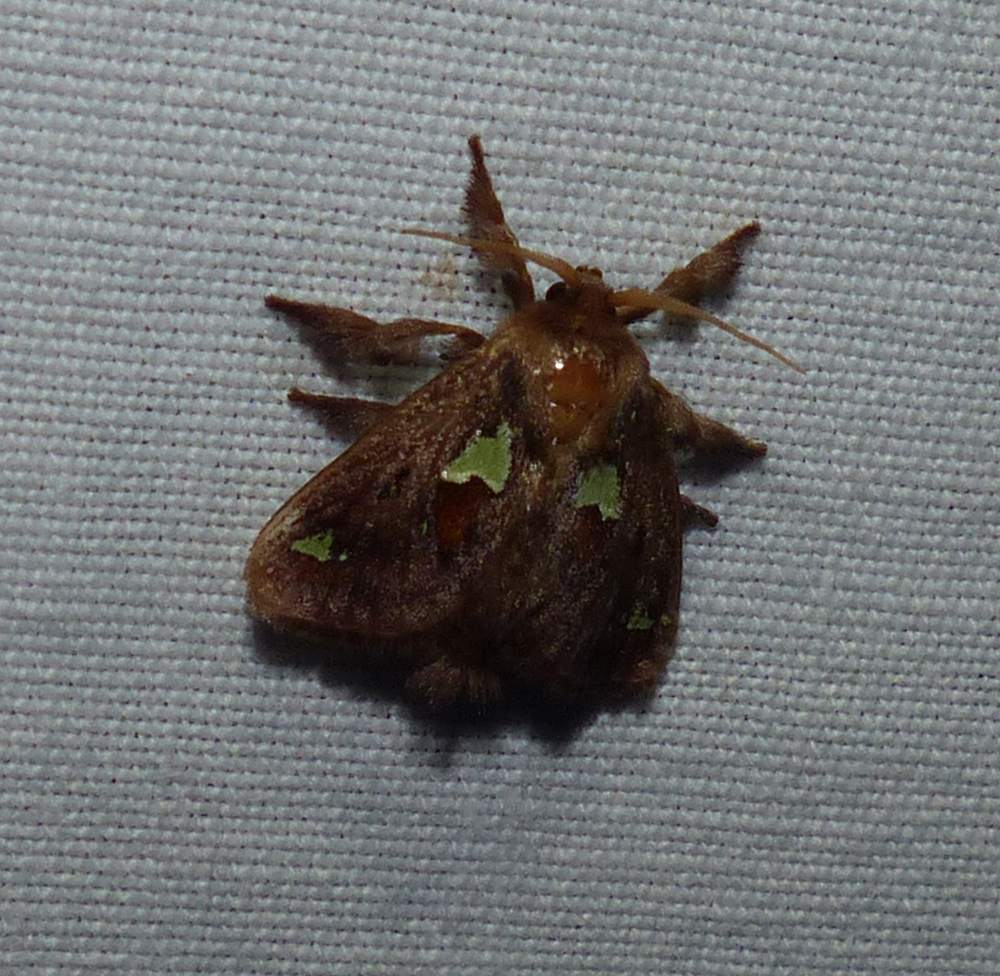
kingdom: Animalia
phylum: Arthropoda
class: Insecta
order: Lepidoptera
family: Limacodidae
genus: Euclea
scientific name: Euclea delphinii
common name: Spiny oak-slug moth
